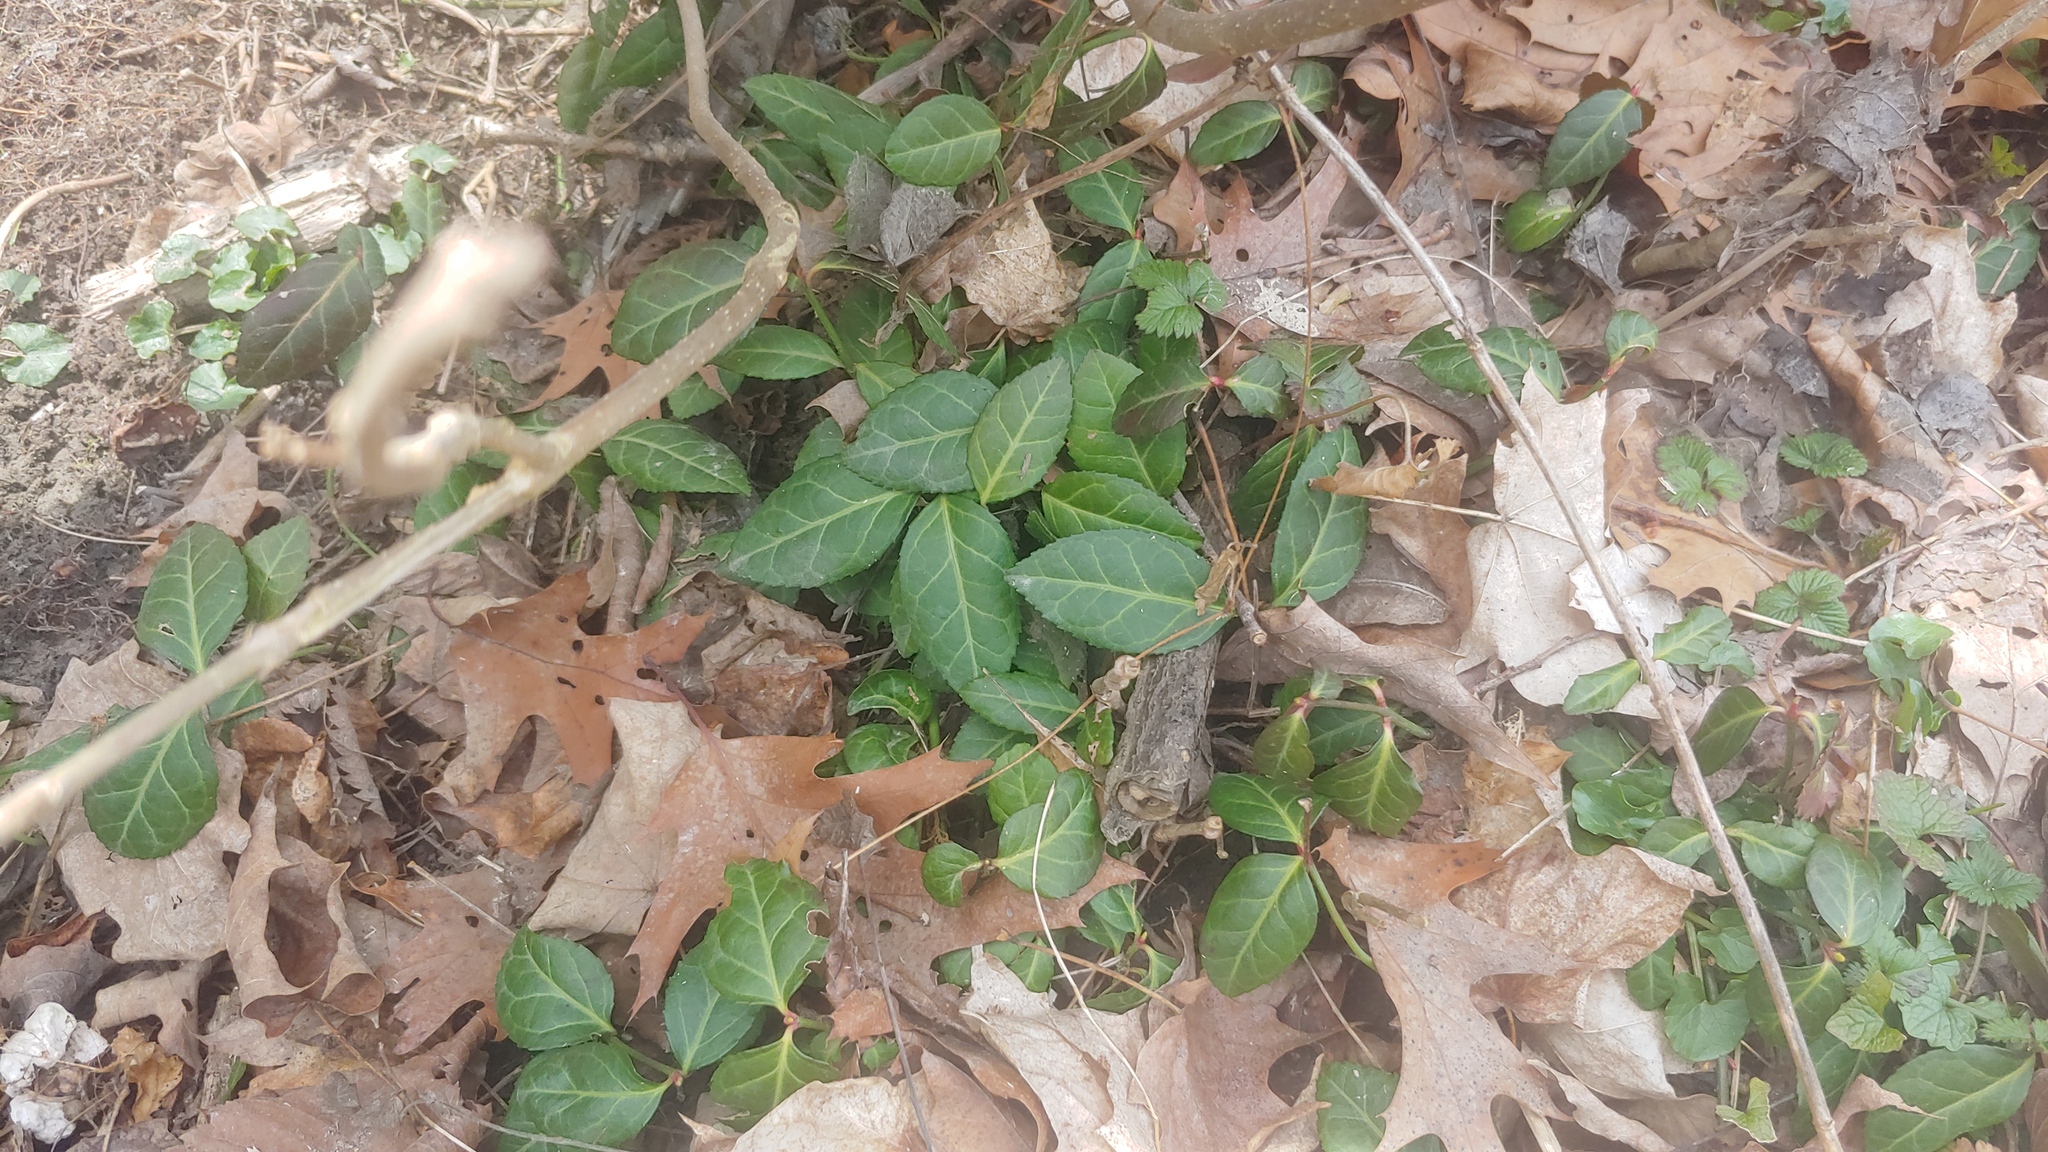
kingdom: Plantae
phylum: Tracheophyta
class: Magnoliopsida
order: Celastrales
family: Celastraceae
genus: Euonymus
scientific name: Euonymus fortunei
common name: Climbing euonymus
